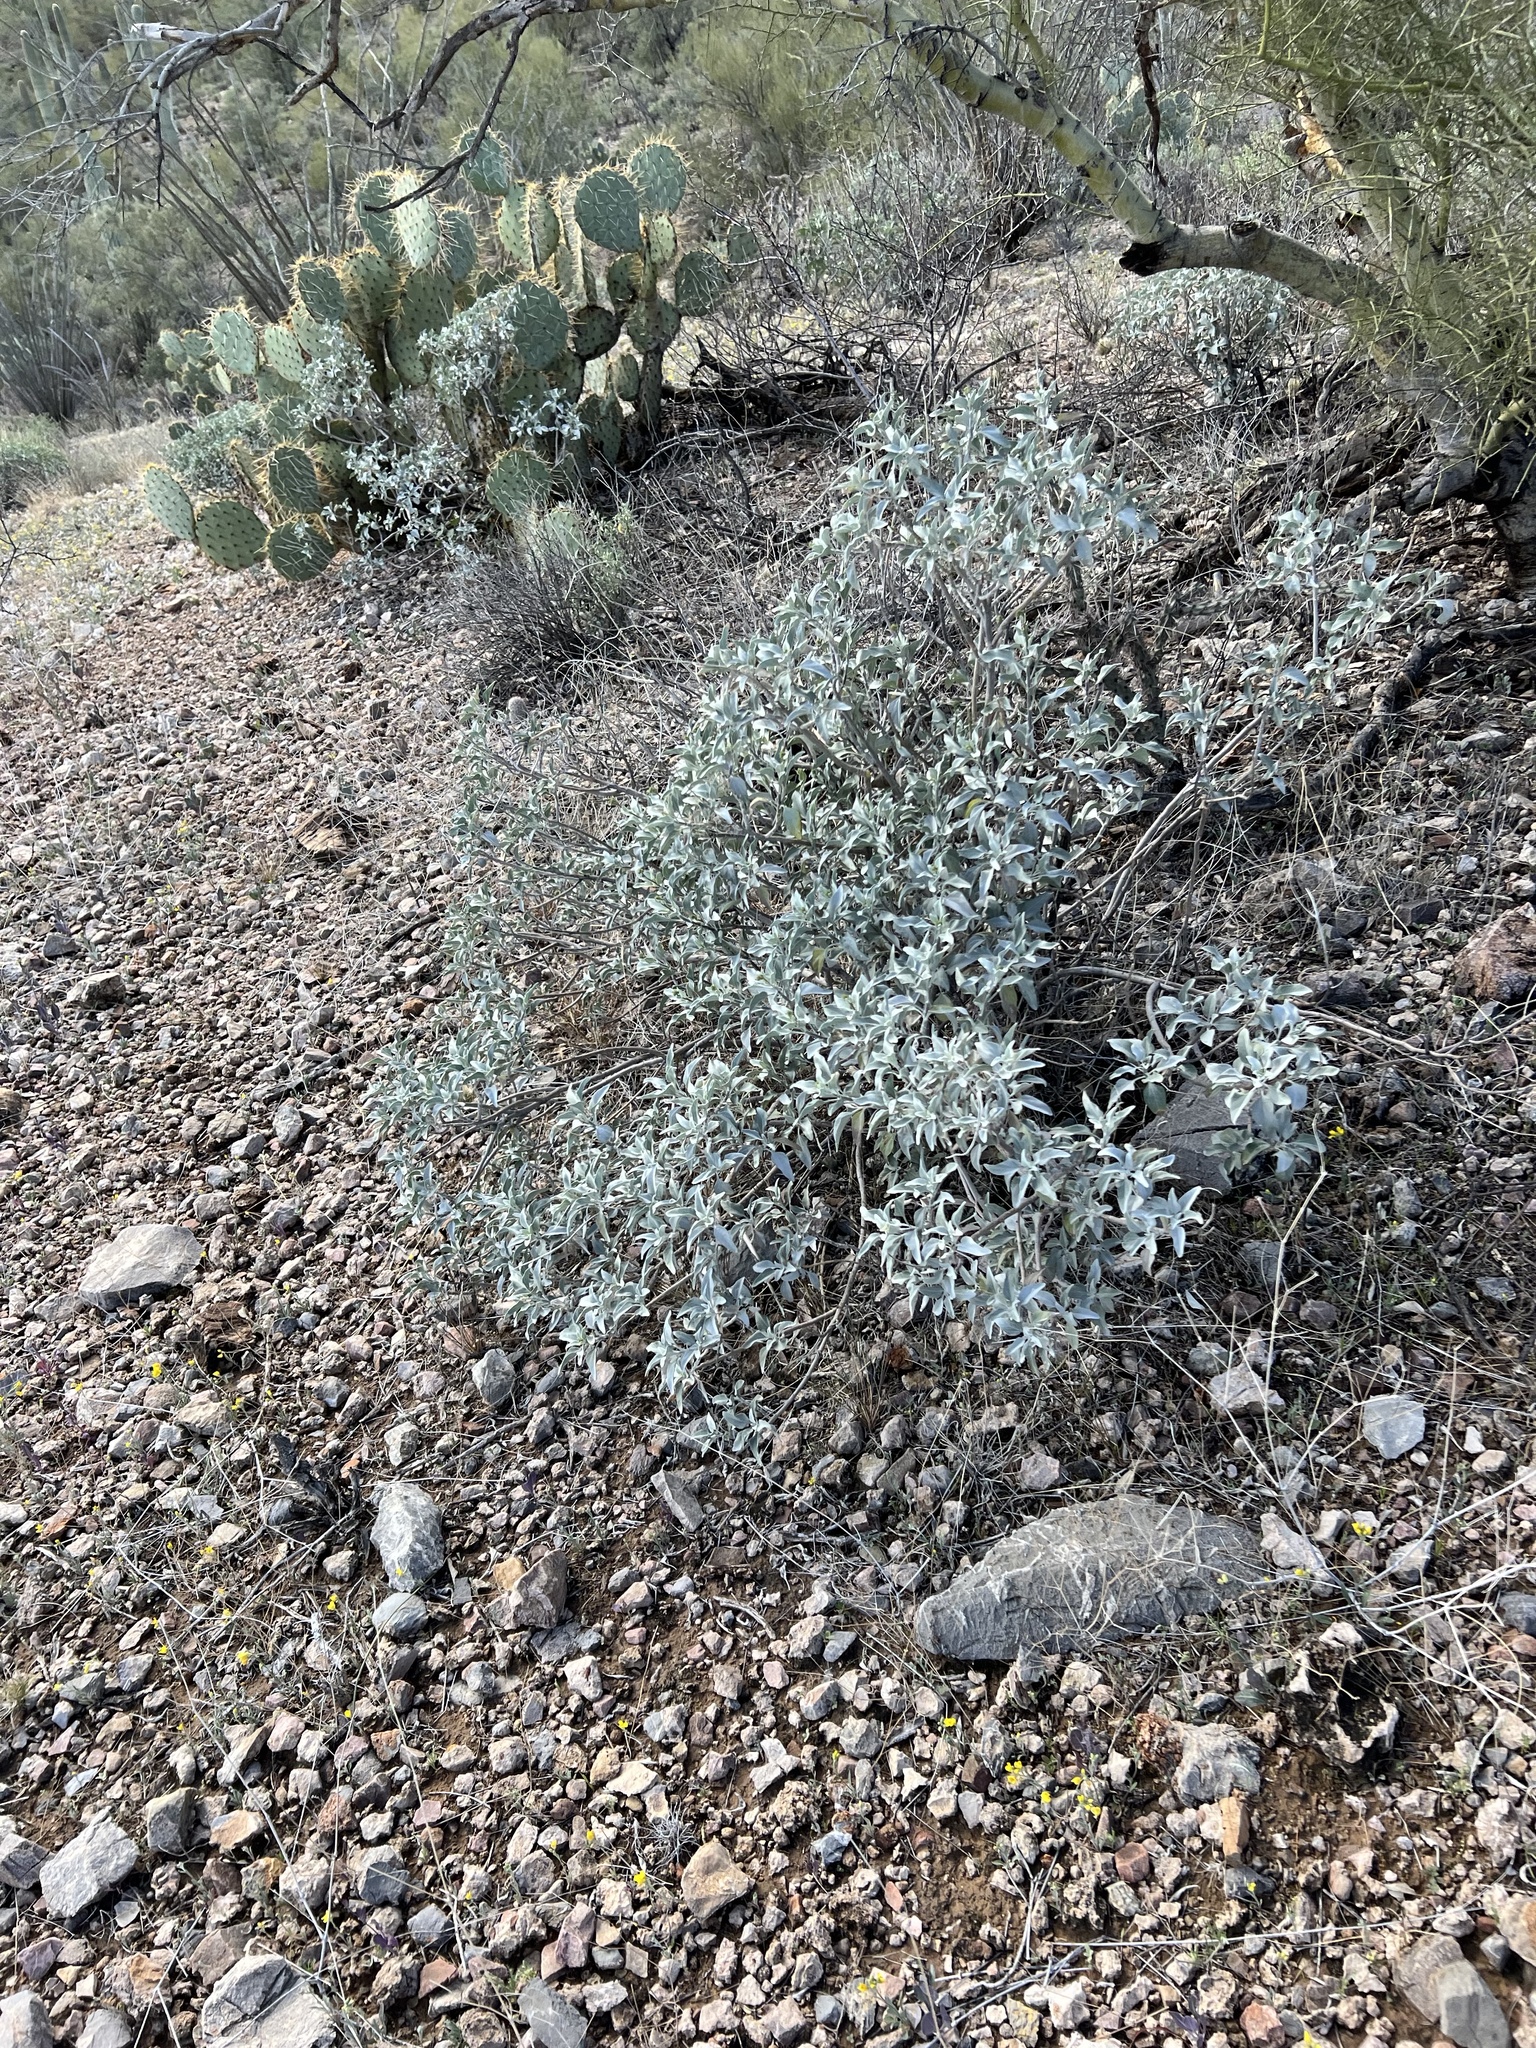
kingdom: Plantae
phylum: Tracheophyta
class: Magnoliopsida
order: Asterales
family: Asteraceae
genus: Encelia
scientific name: Encelia farinosa
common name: Brittlebush
